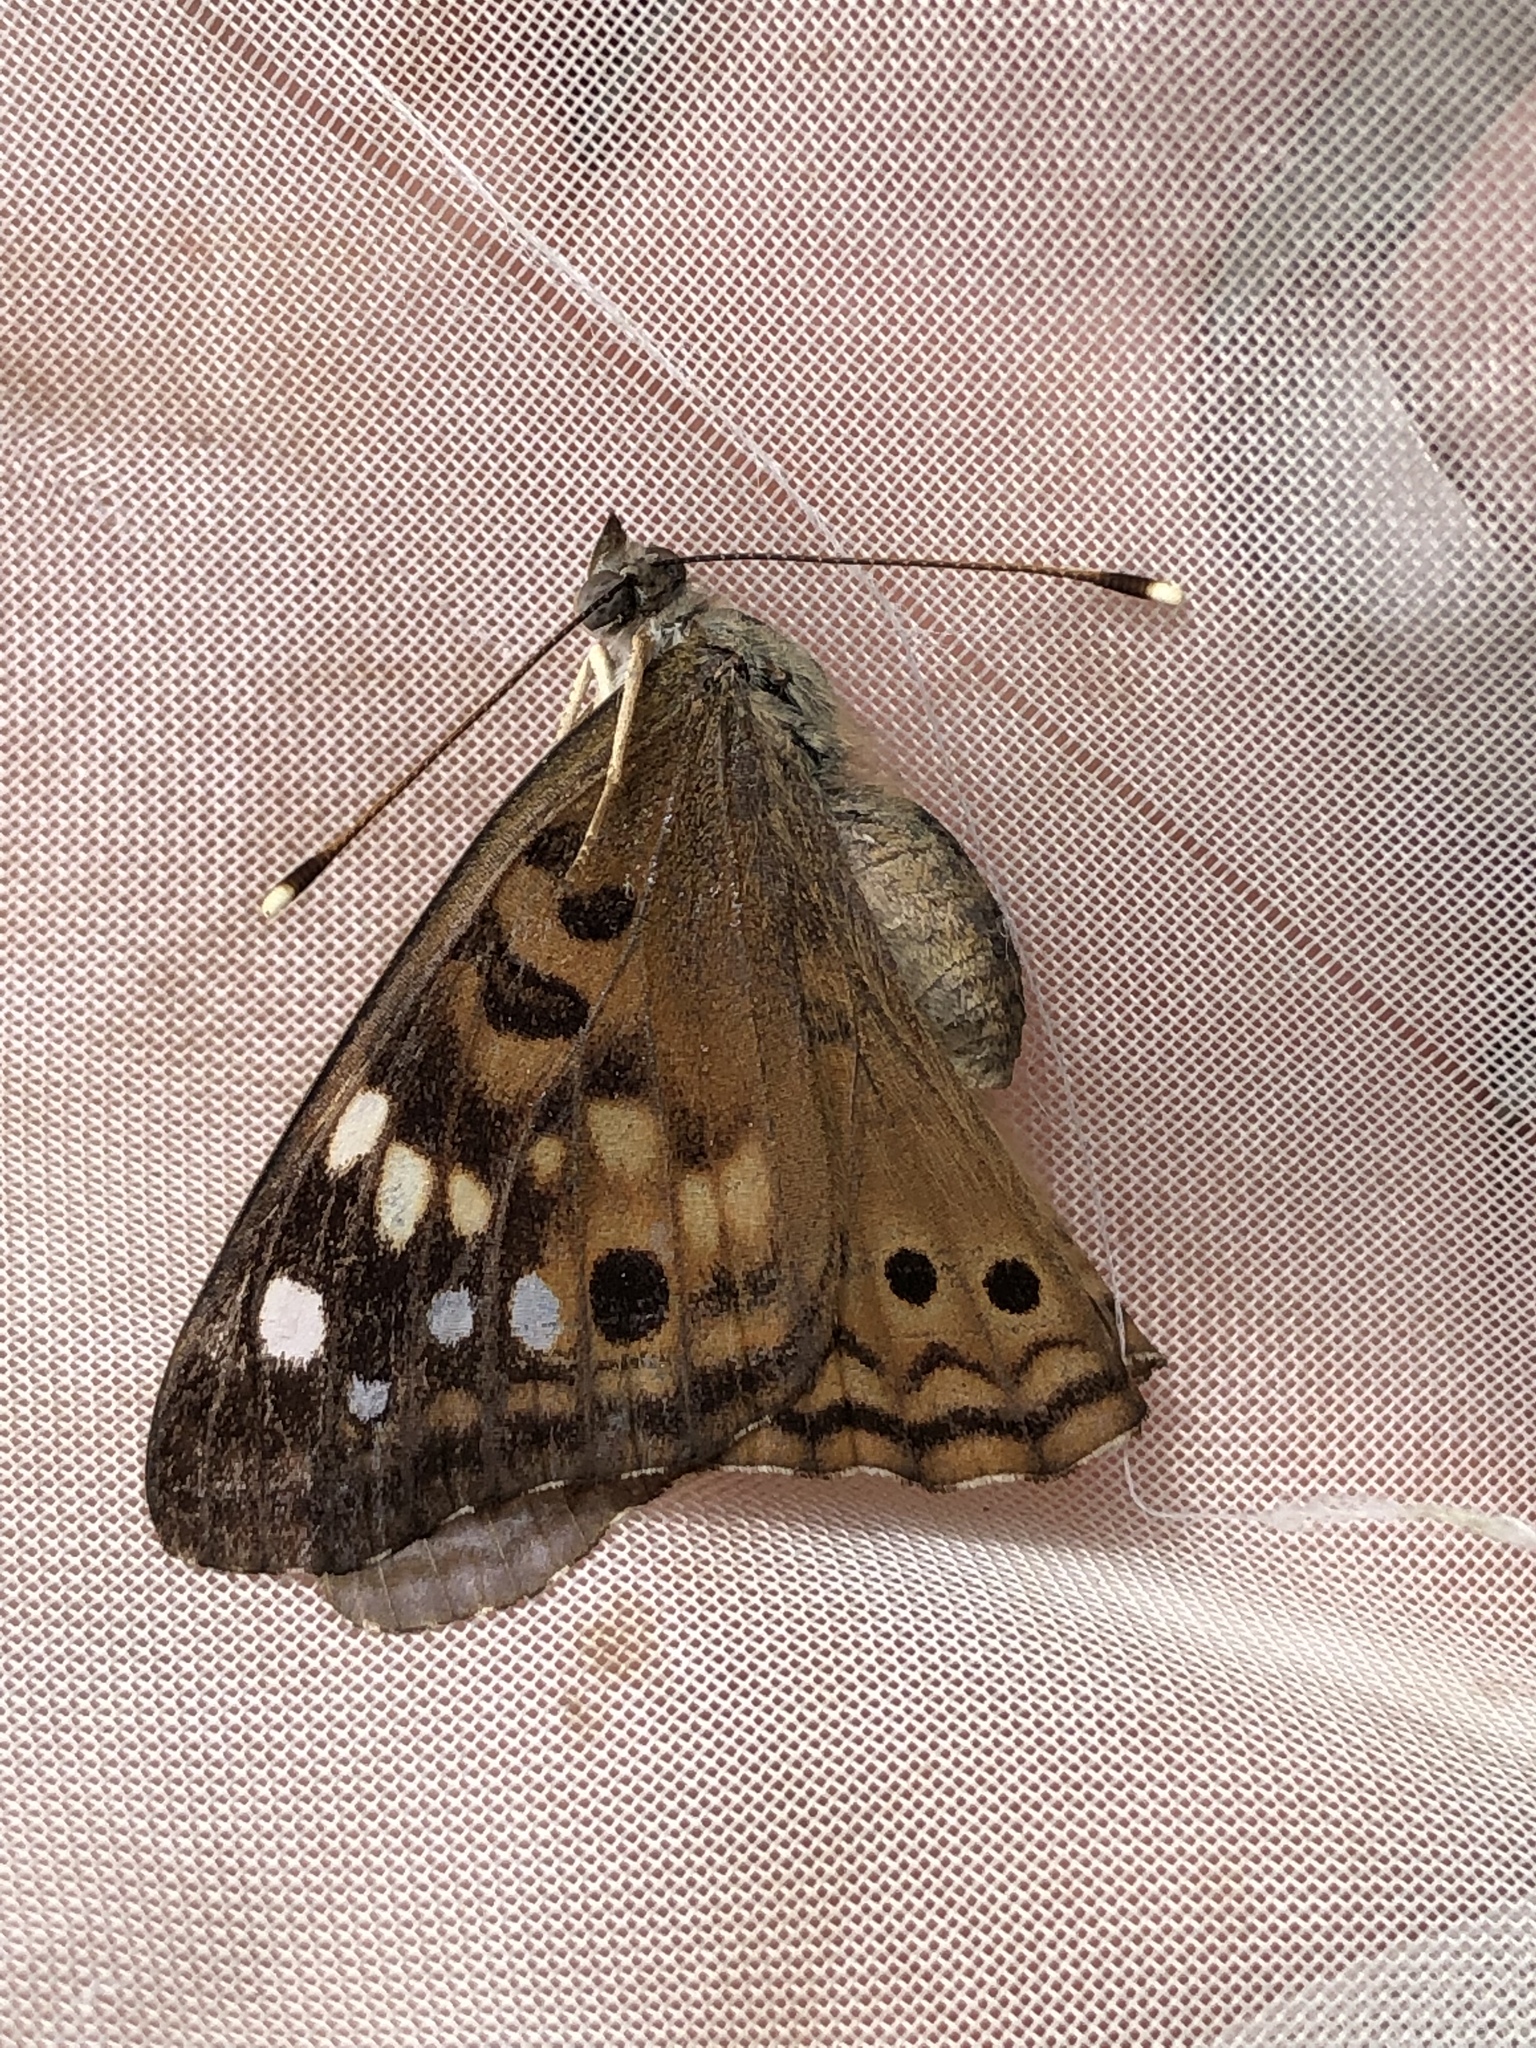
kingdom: Animalia
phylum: Arthropoda
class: Insecta
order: Lepidoptera
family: Nymphalidae
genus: Asterocampa
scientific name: Asterocampa celtis
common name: Hackberry emperor
